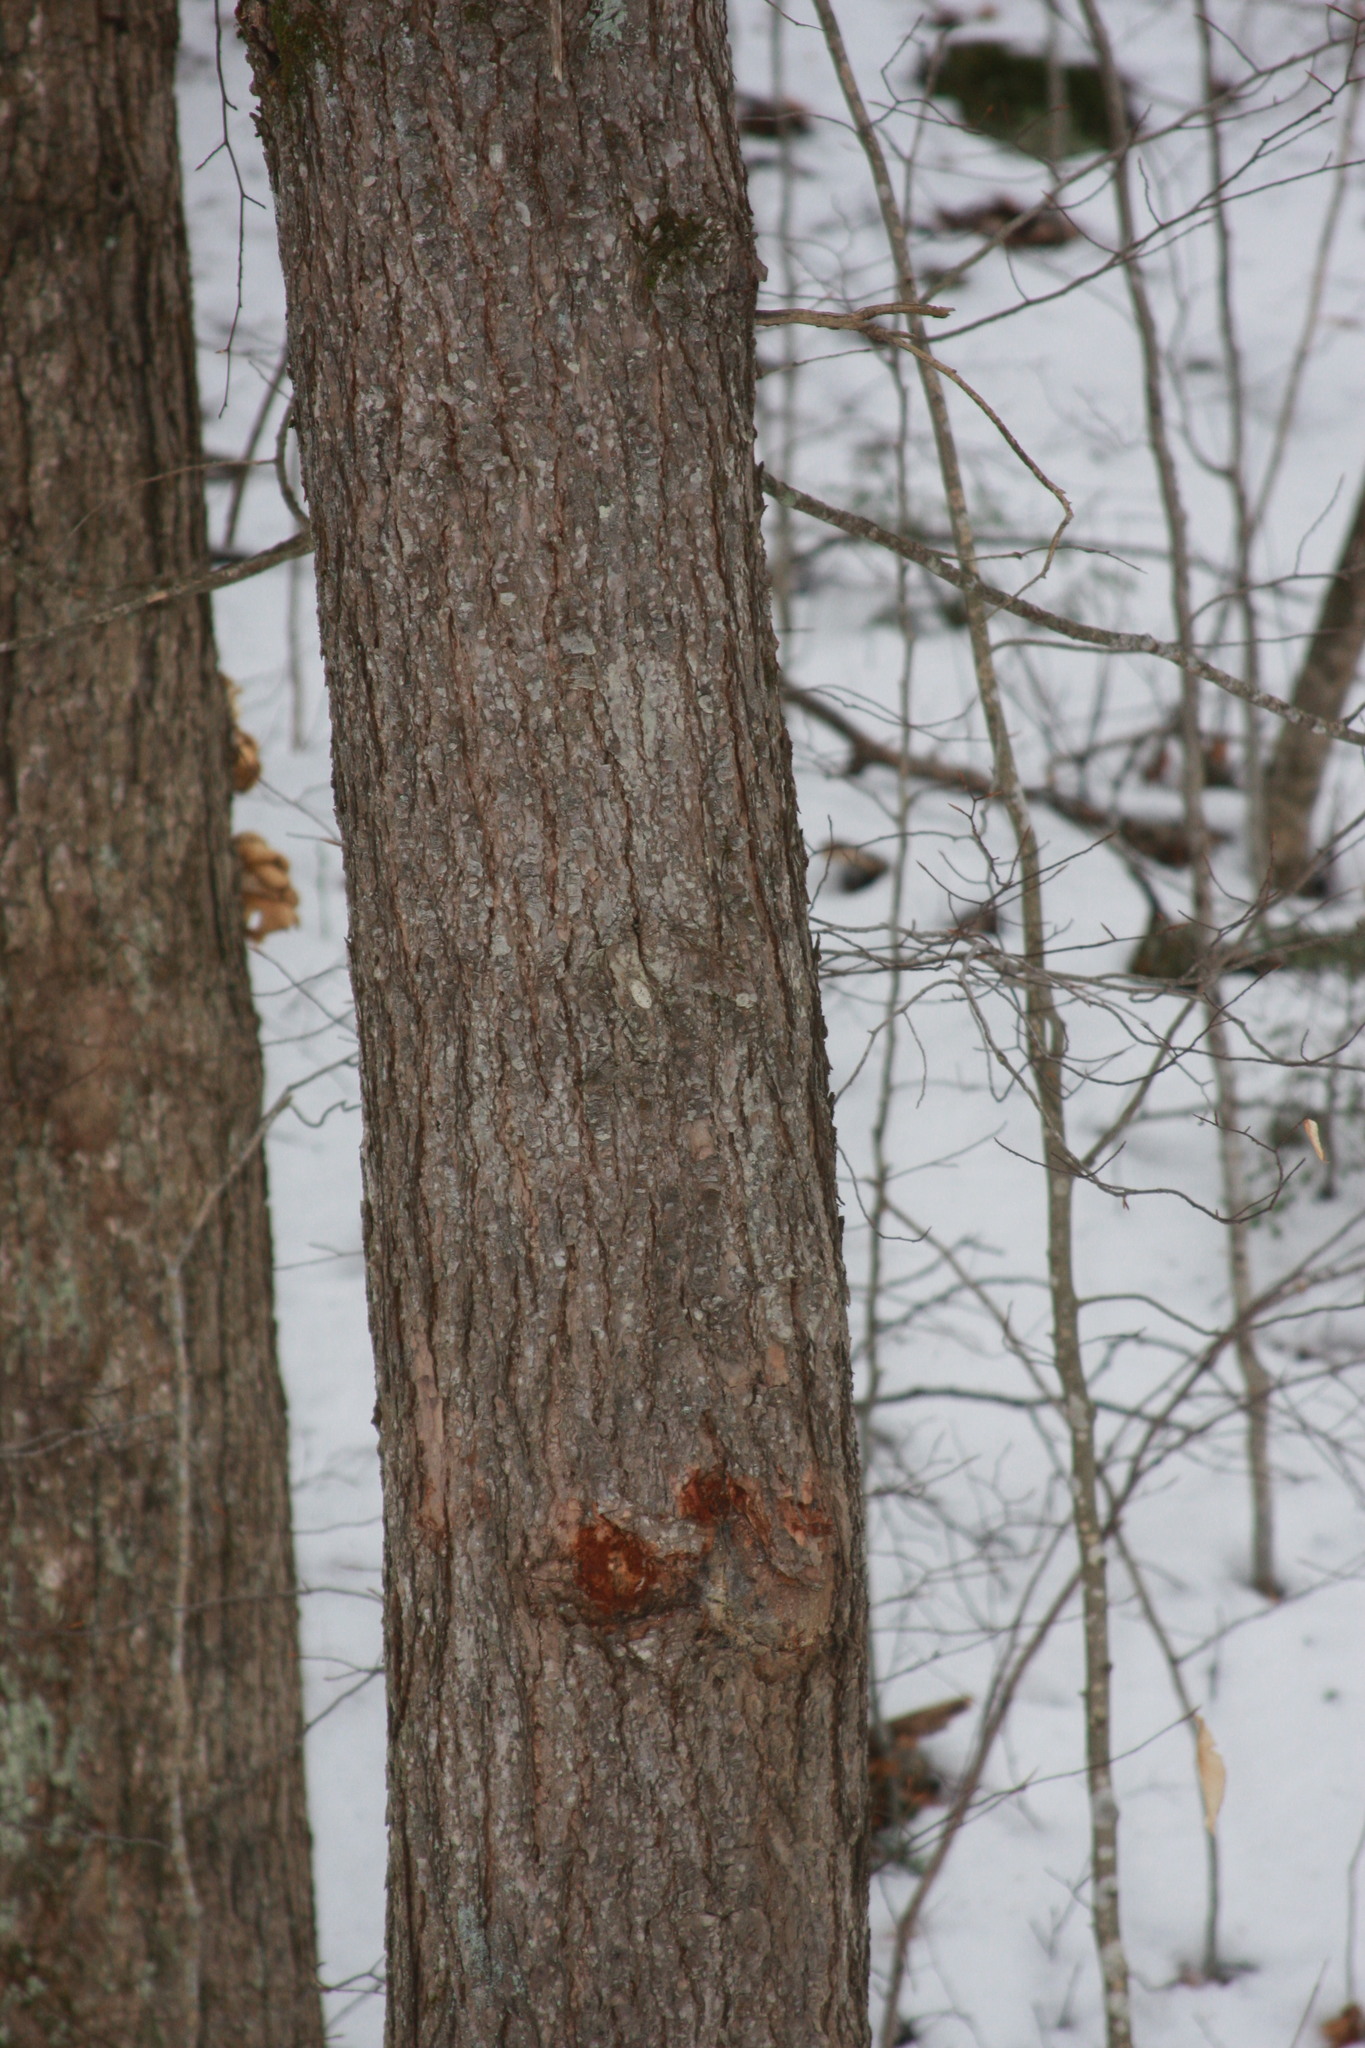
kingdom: Plantae
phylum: Tracheophyta
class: Pinopsida
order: Pinales
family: Pinaceae
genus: Tsuga
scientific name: Tsuga canadensis
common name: Eastern hemlock
